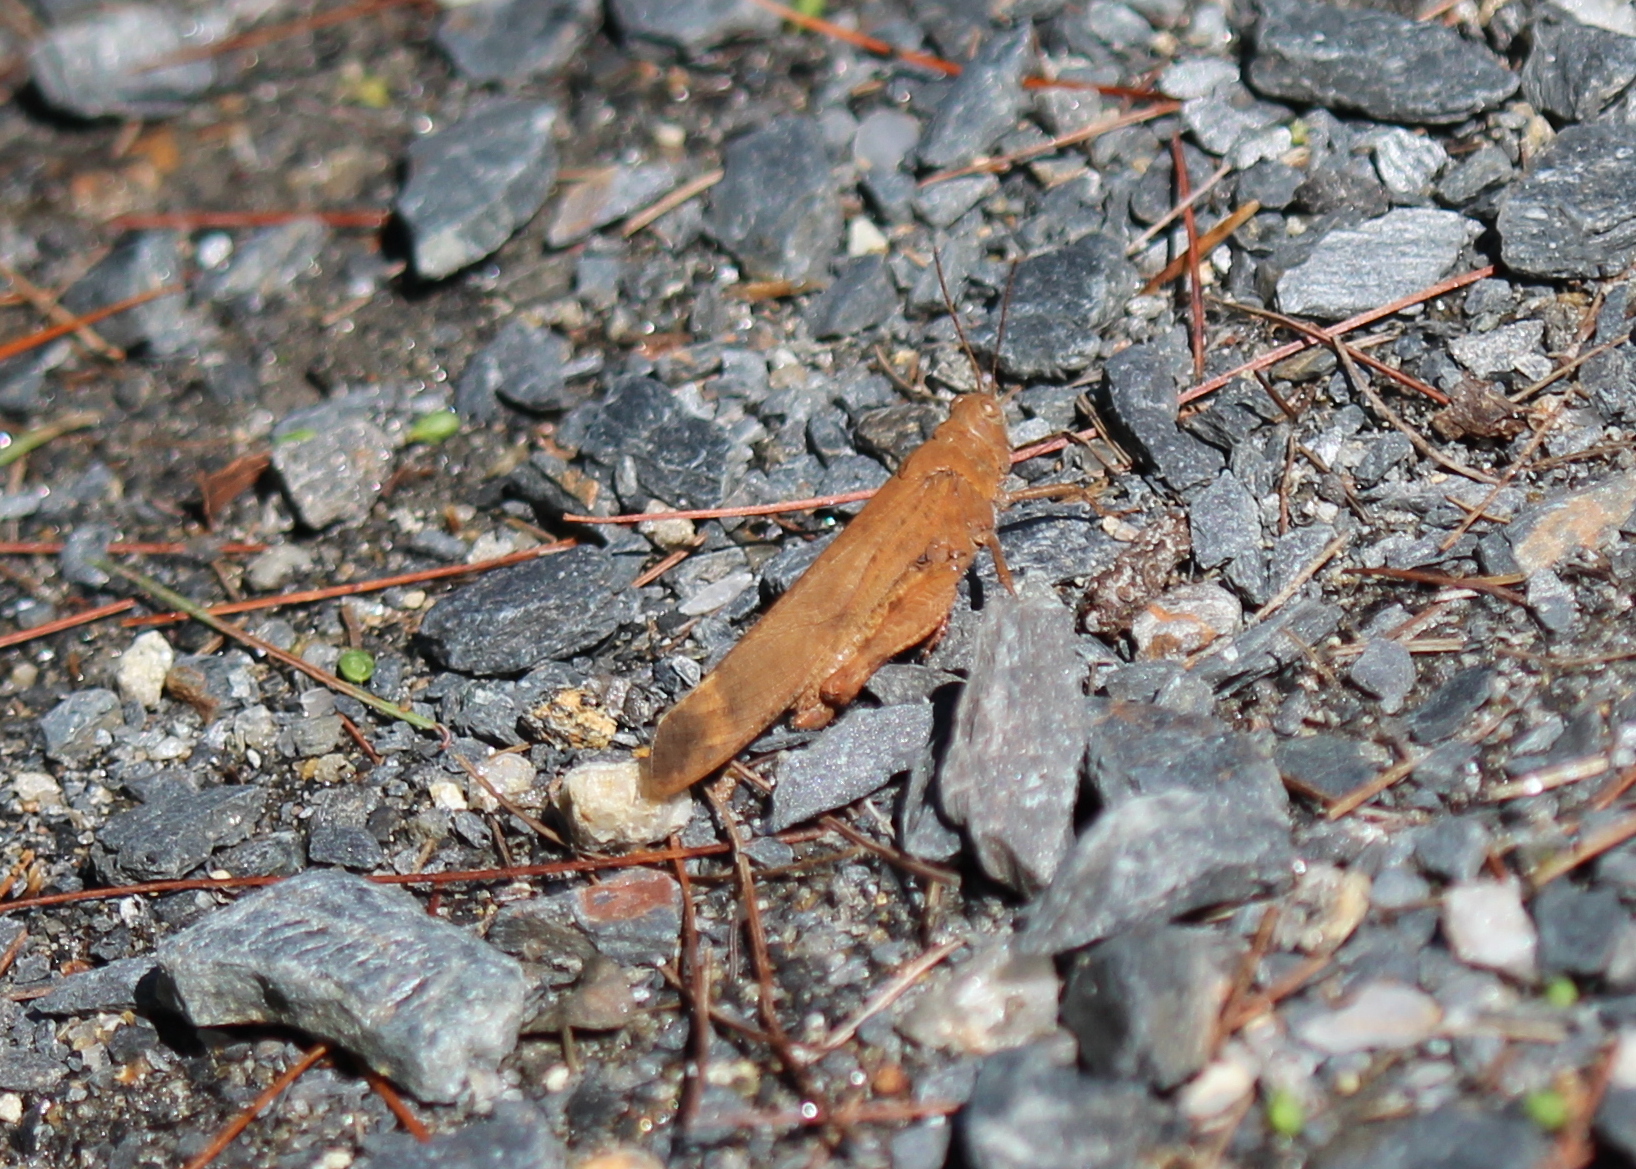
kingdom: Animalia
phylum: Arthropoda
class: Insecta
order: Orthoptera
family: Acrididae
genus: Dissosteira
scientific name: Dissosteira carolina
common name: Carolina grasshopper
